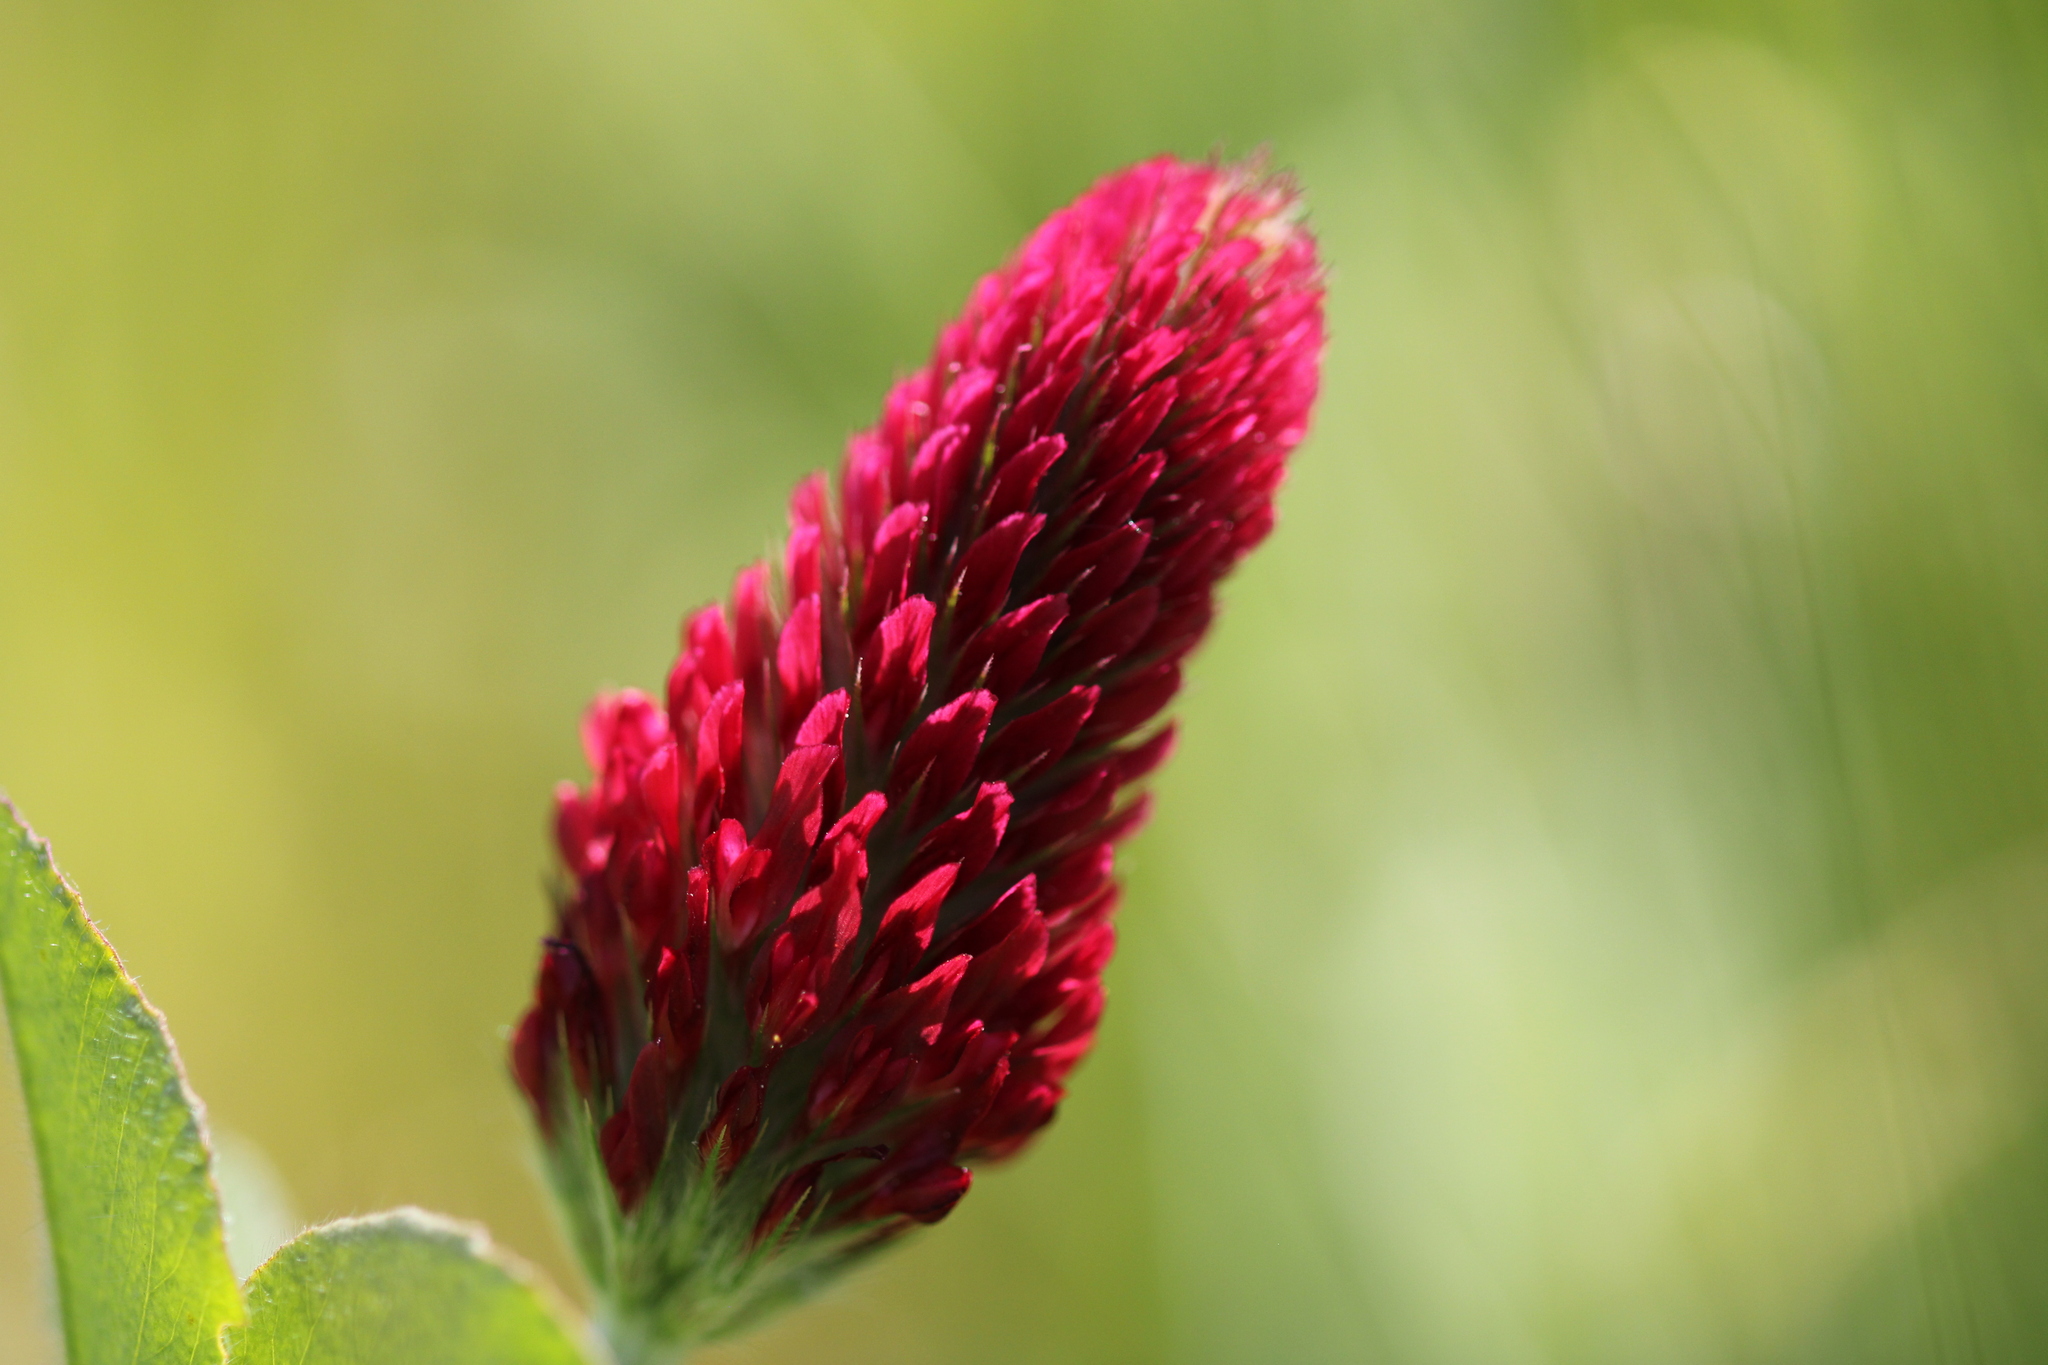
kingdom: Plantae
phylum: Tracheophyta
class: Magnoliopsida
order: Fabales
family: Fabaceae
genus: Trifolium
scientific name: Trifolium incarnatum
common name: Crimson clover
